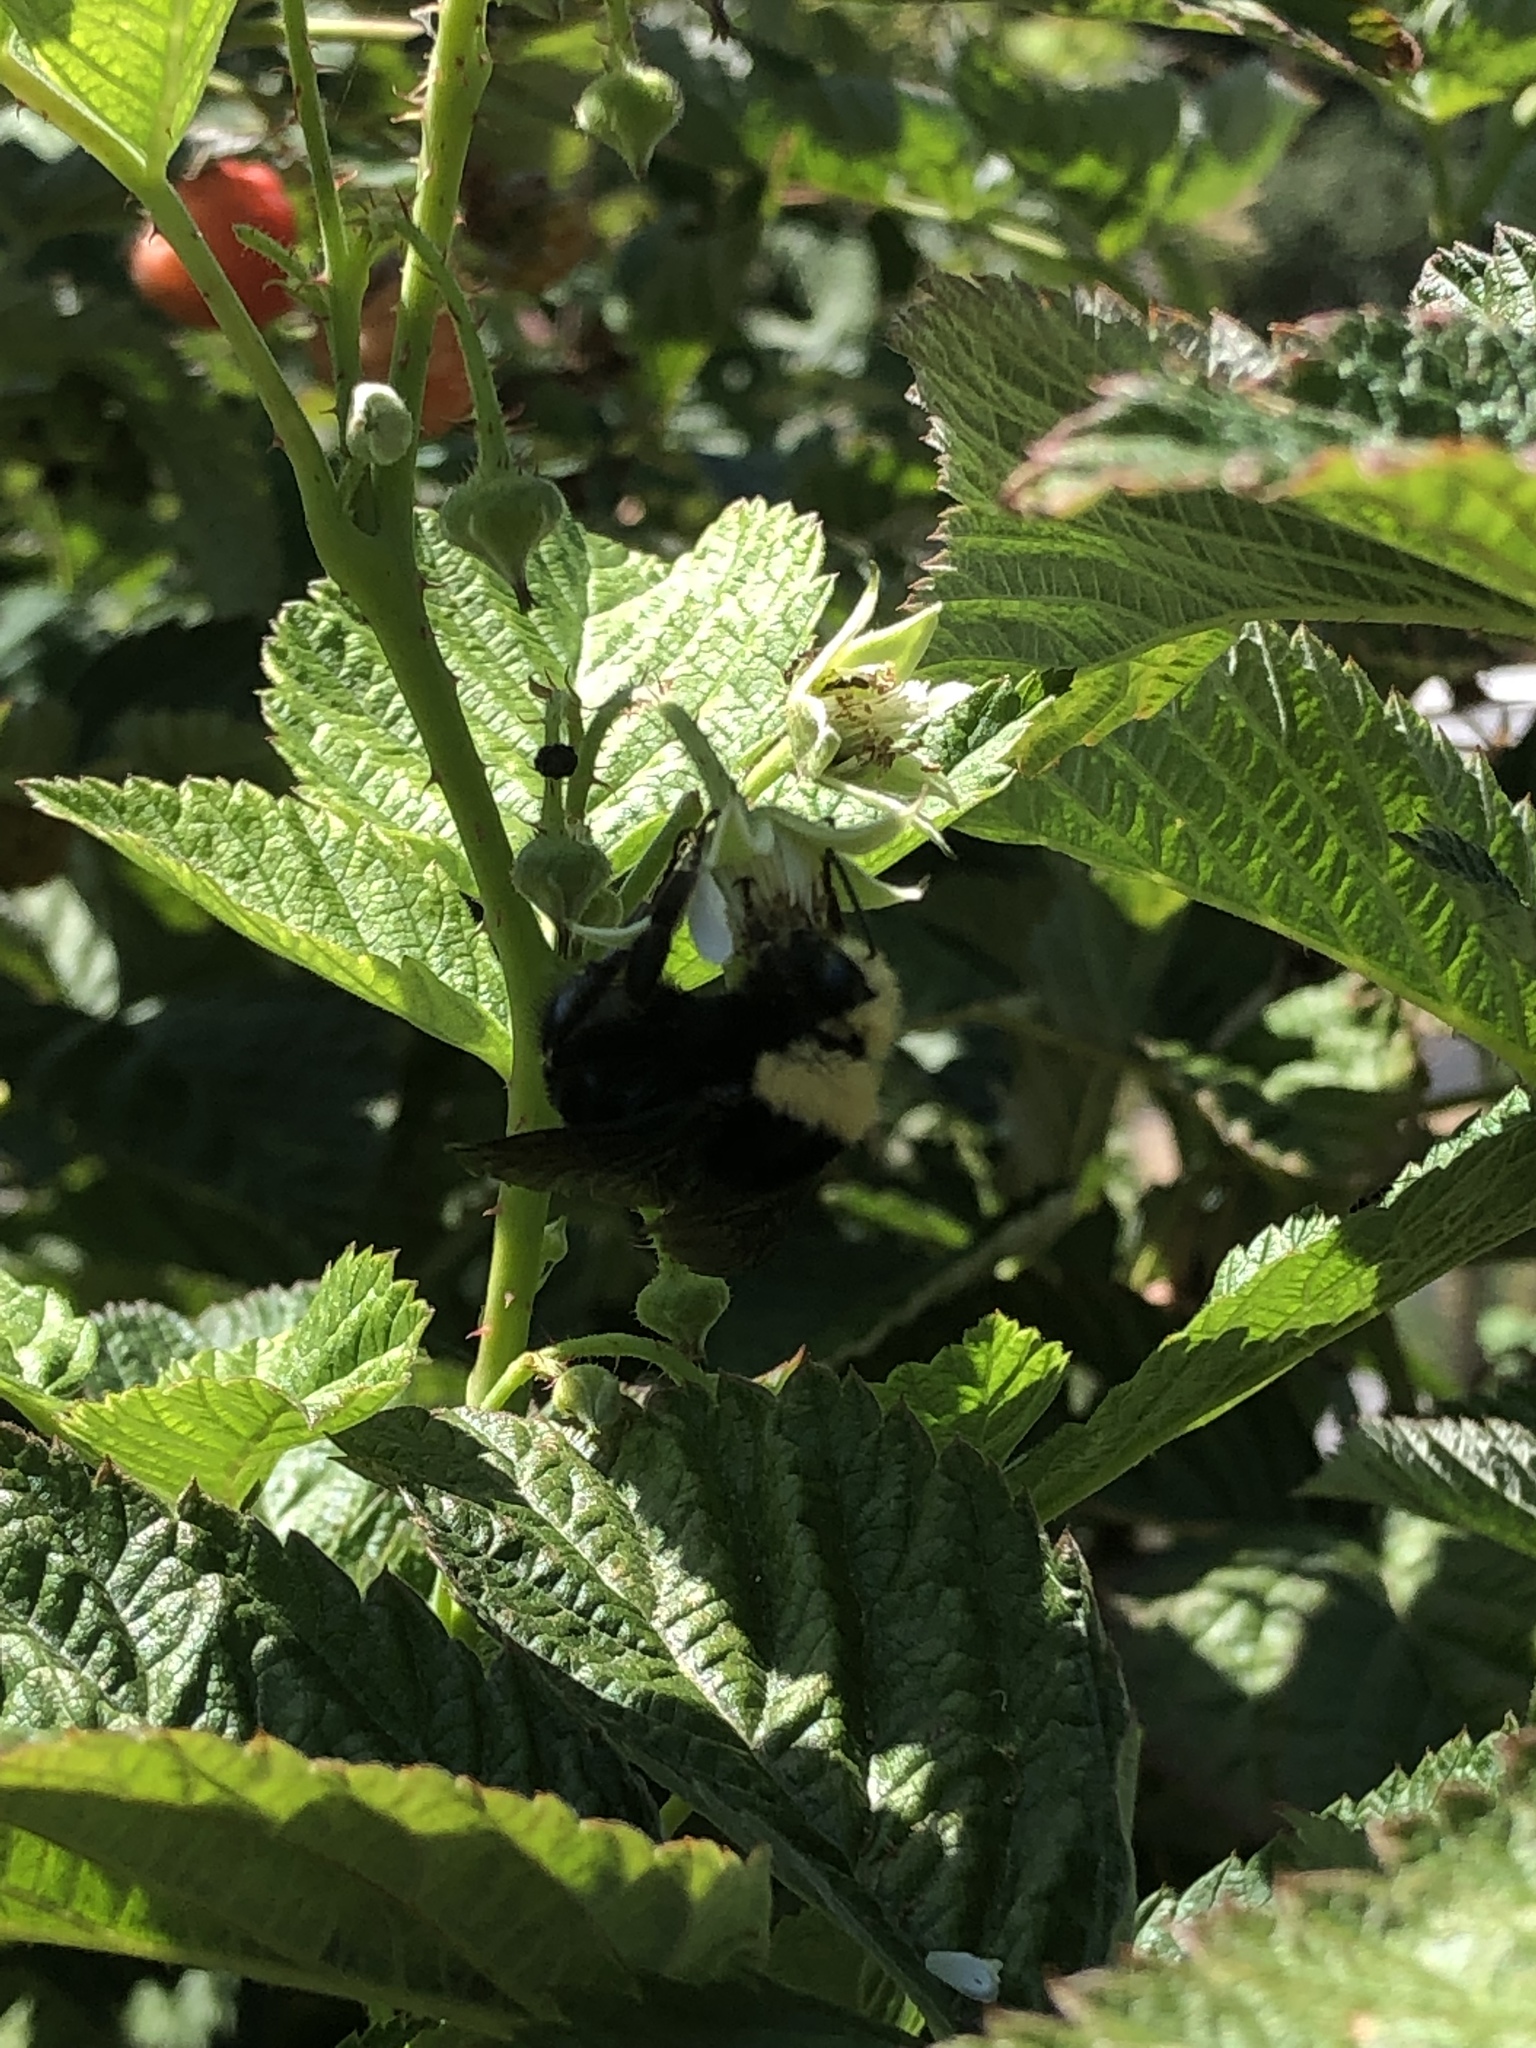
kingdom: Animalia
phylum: Arthropoda
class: Insecta
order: Hymenoptera
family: Apidae
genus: Bombus
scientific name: Bombus vosnesenskii
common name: Vosnesensky bumble bee
